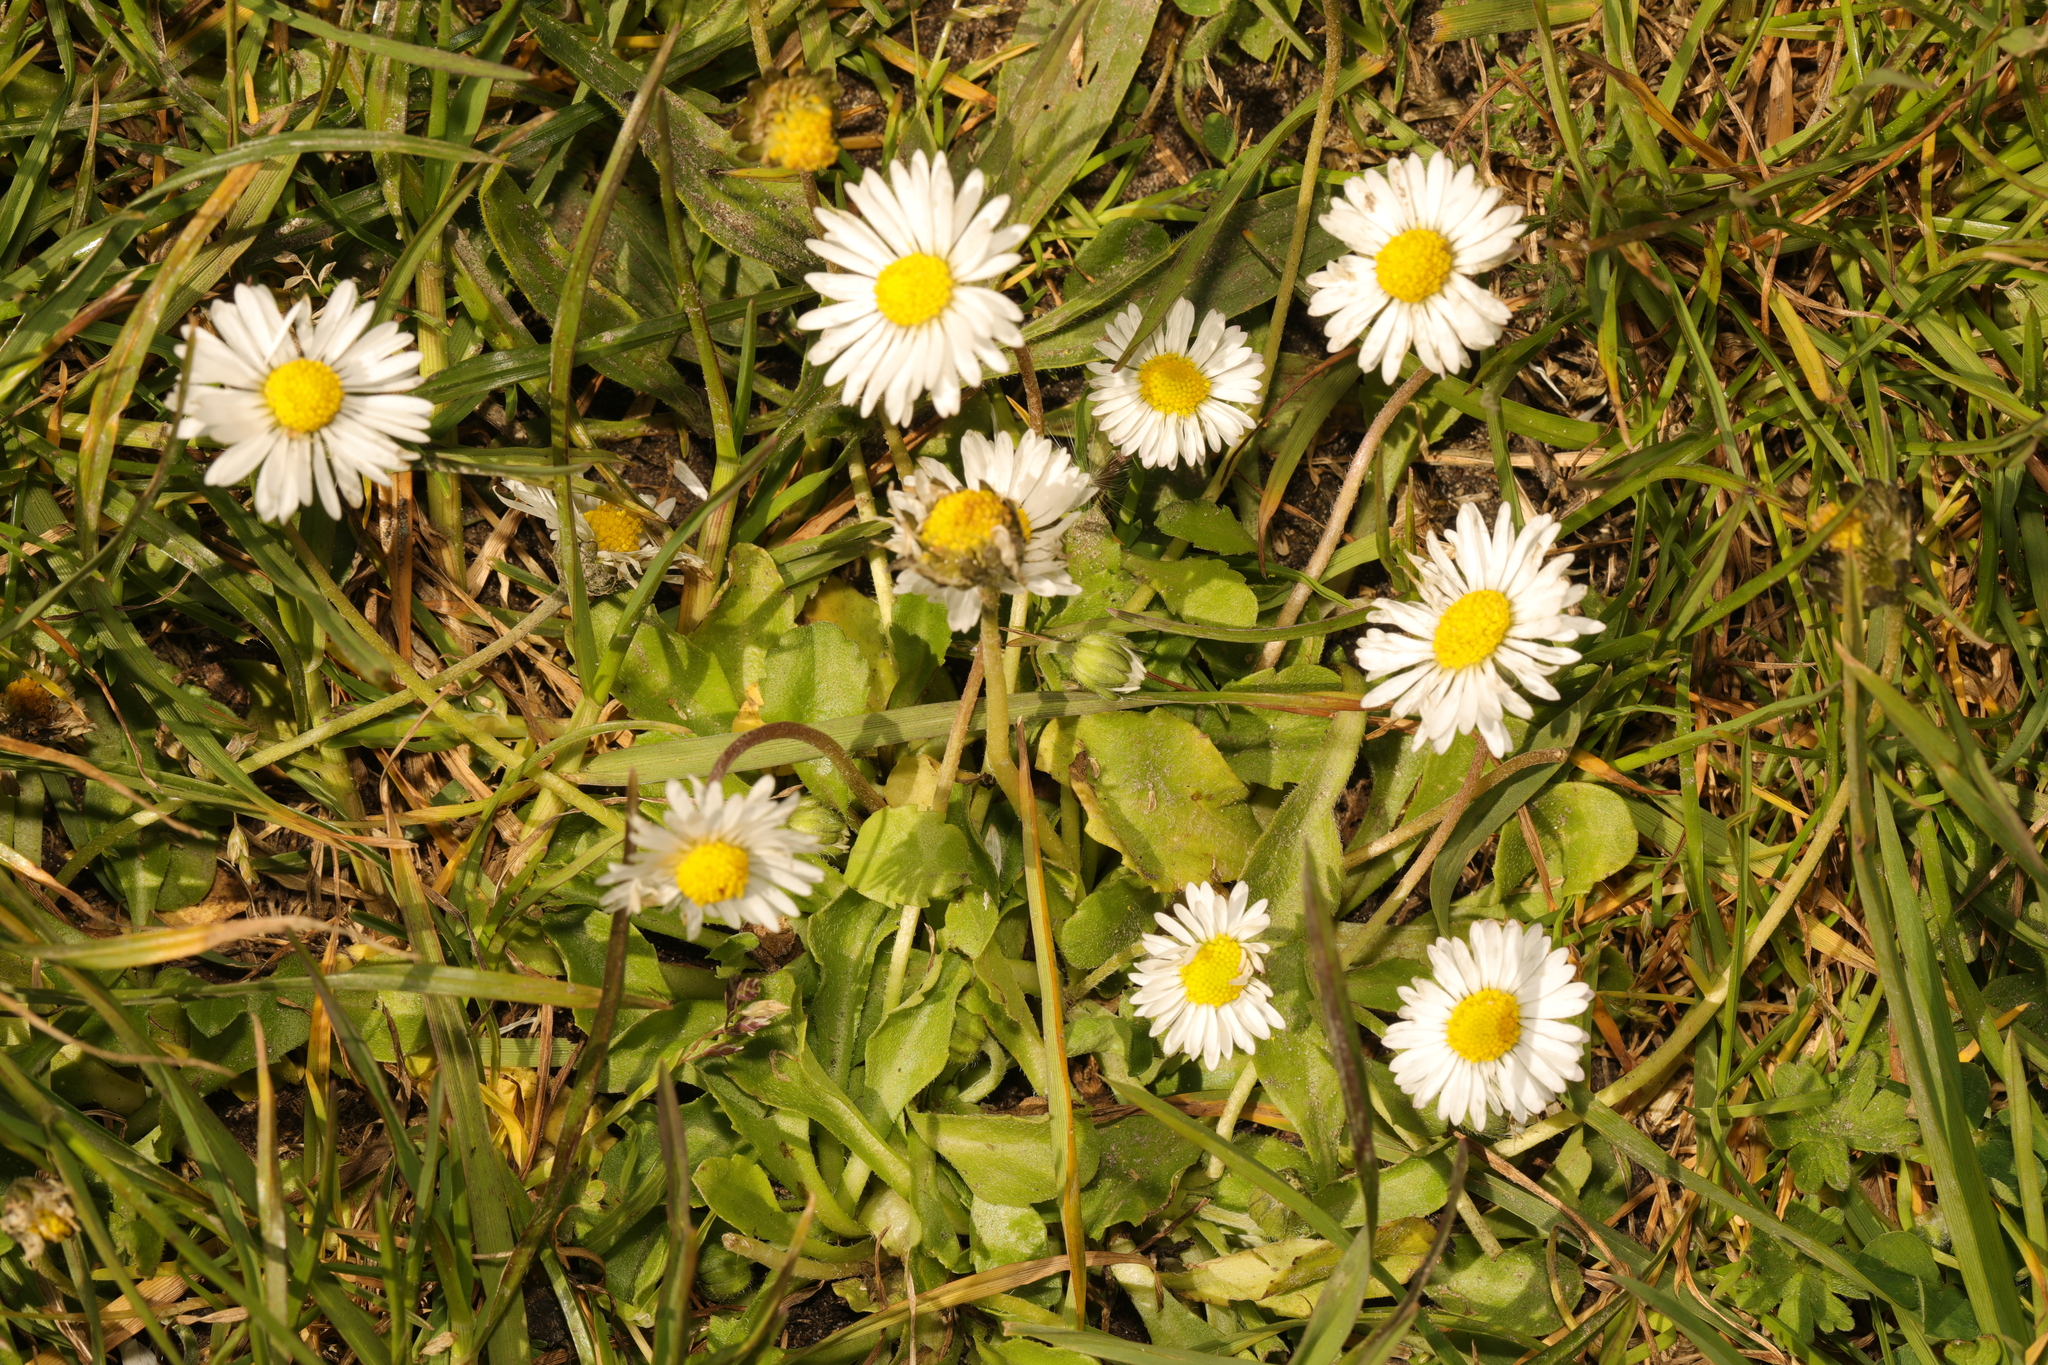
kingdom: Plantae
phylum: Tracheophyta
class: Magnoliopsida
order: Asterales
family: Asteraceae
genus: Bellis
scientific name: Bellis perennis
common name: Lawndaisy
